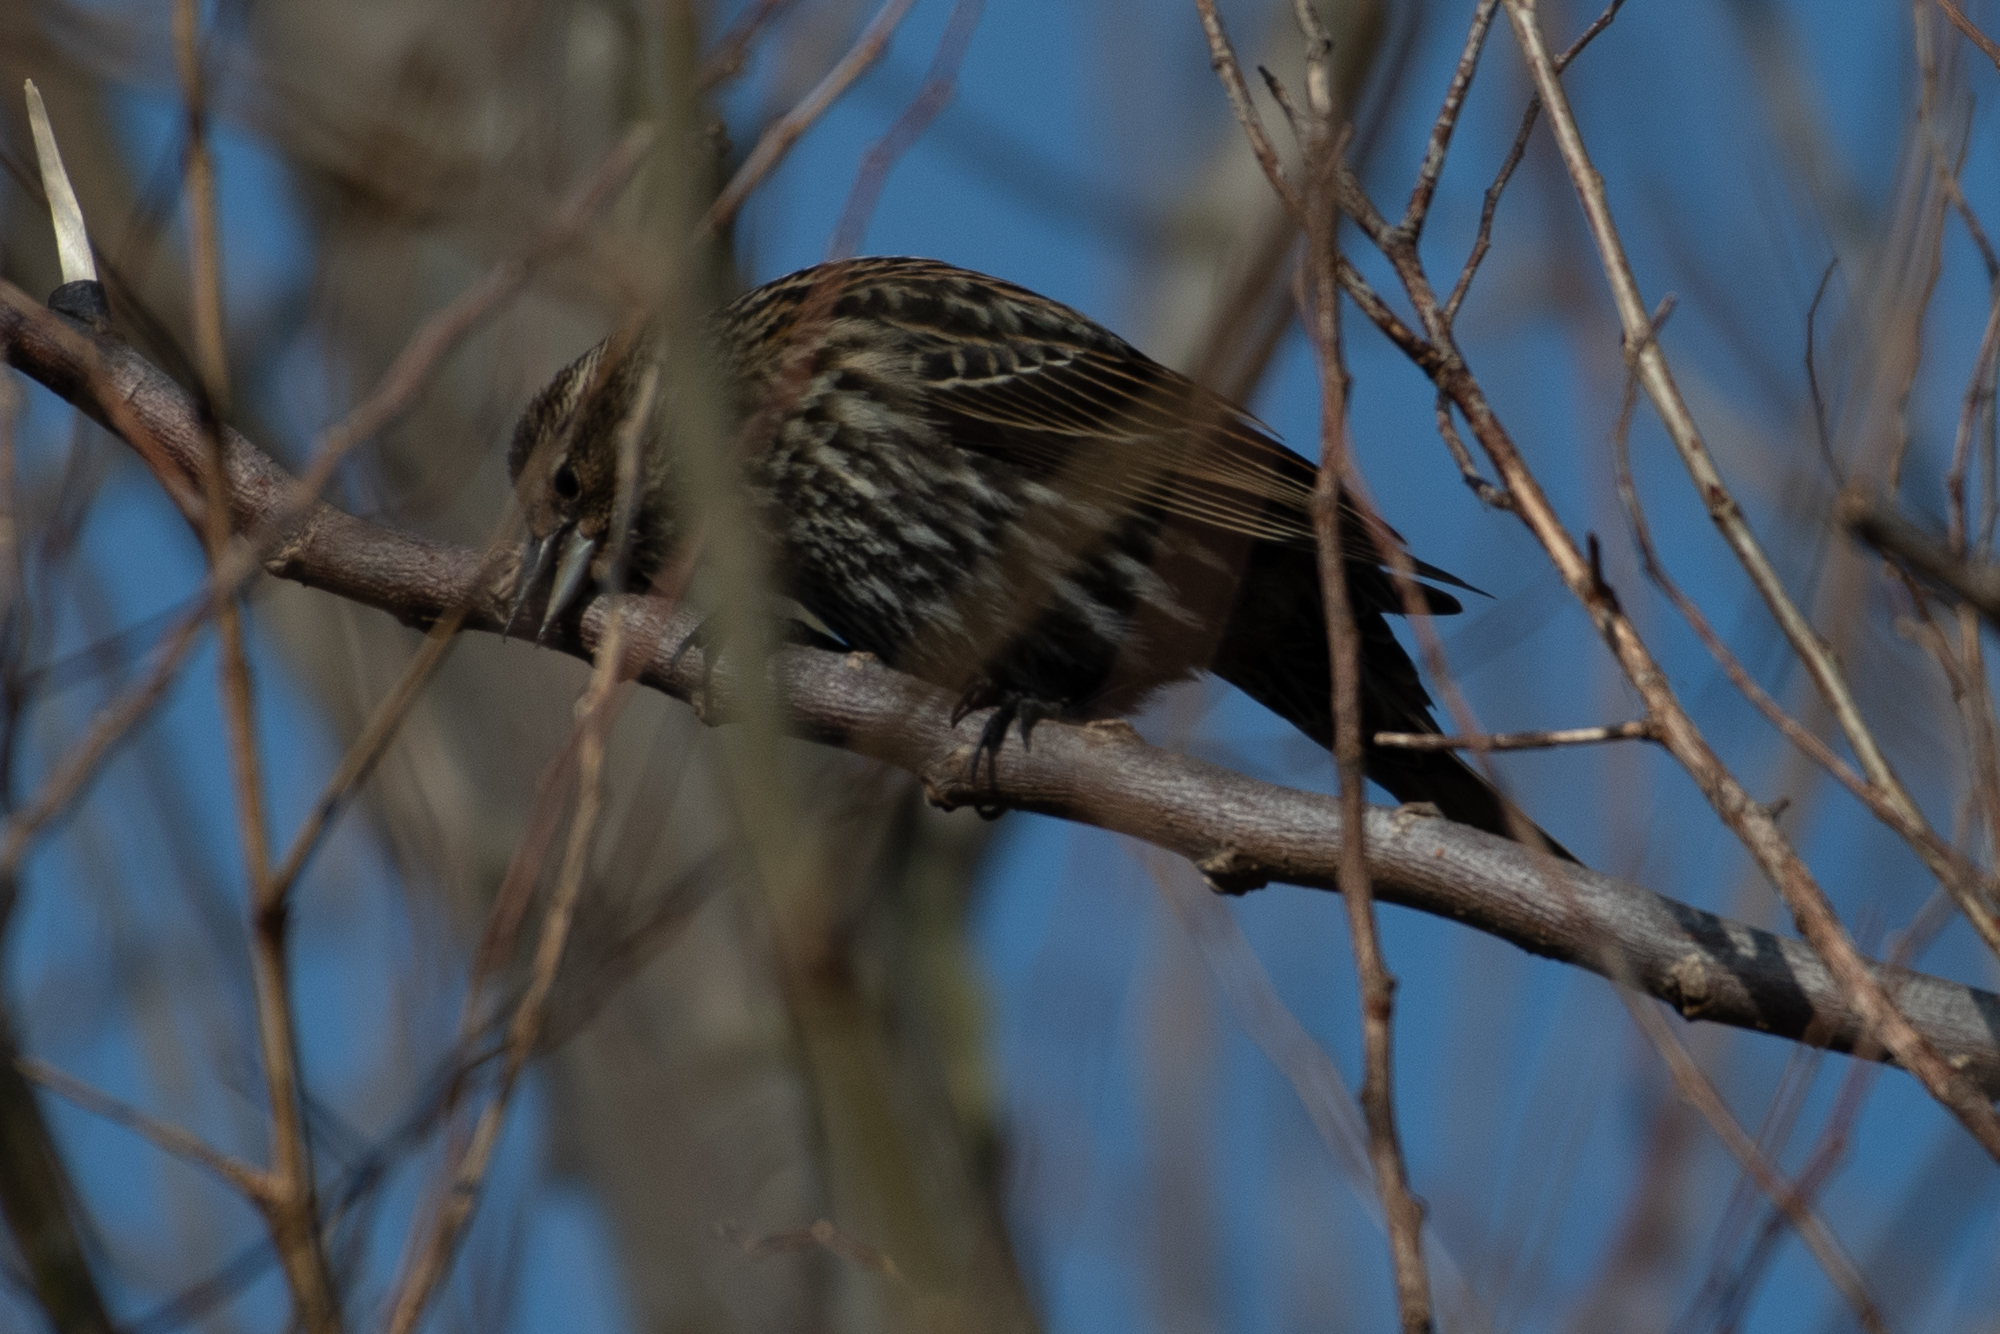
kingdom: Animalia
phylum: Chordata
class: Aves
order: Passeriformes
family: Icteridae
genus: Agelaius
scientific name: Agelaius phoeniceus
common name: Red-winged blackbird
